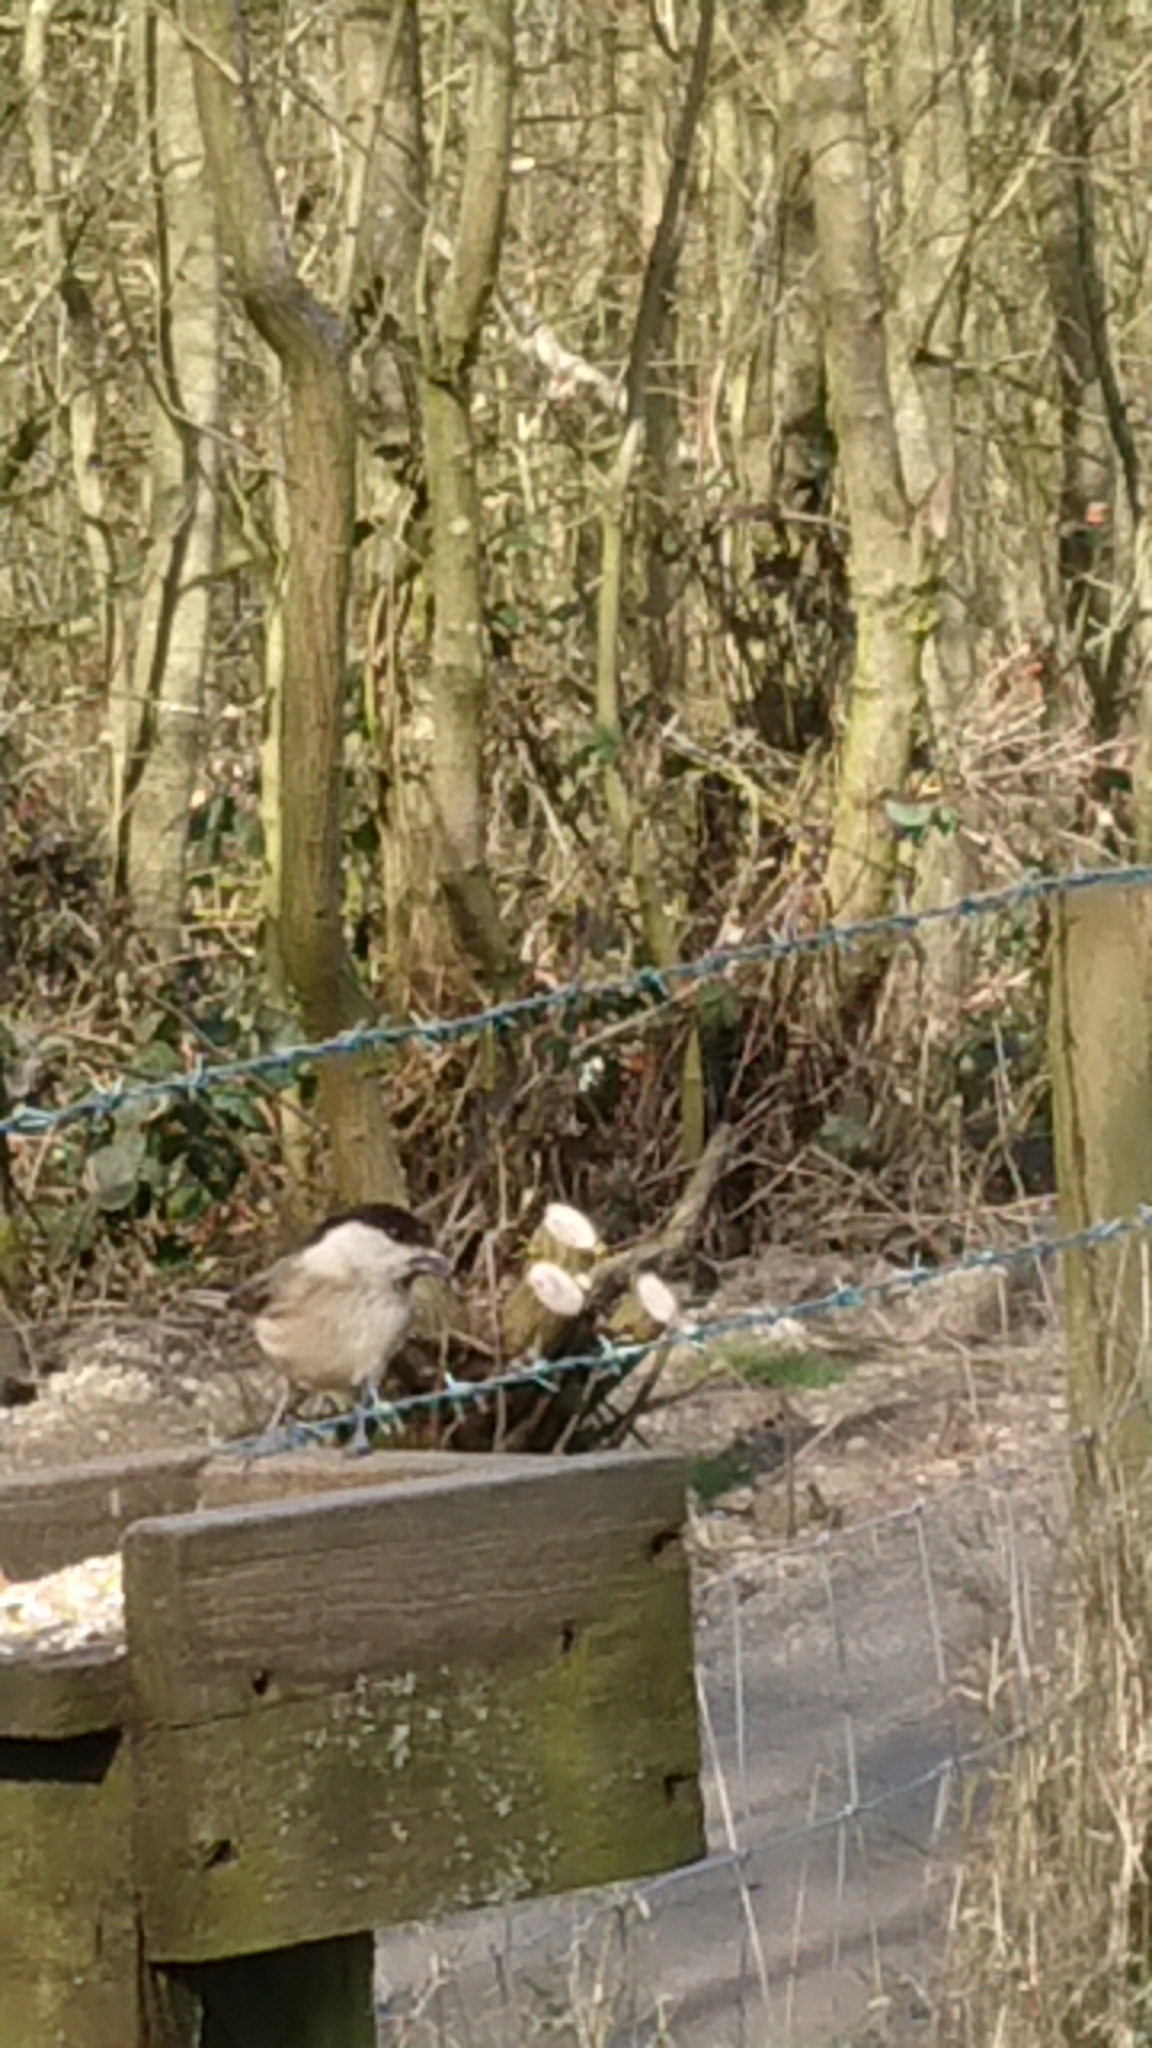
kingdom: Animalia
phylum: Chordata
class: Aves
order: Passeriformes
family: Paridae
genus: Poecile
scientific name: Poecile palustris
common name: Marsh tit
